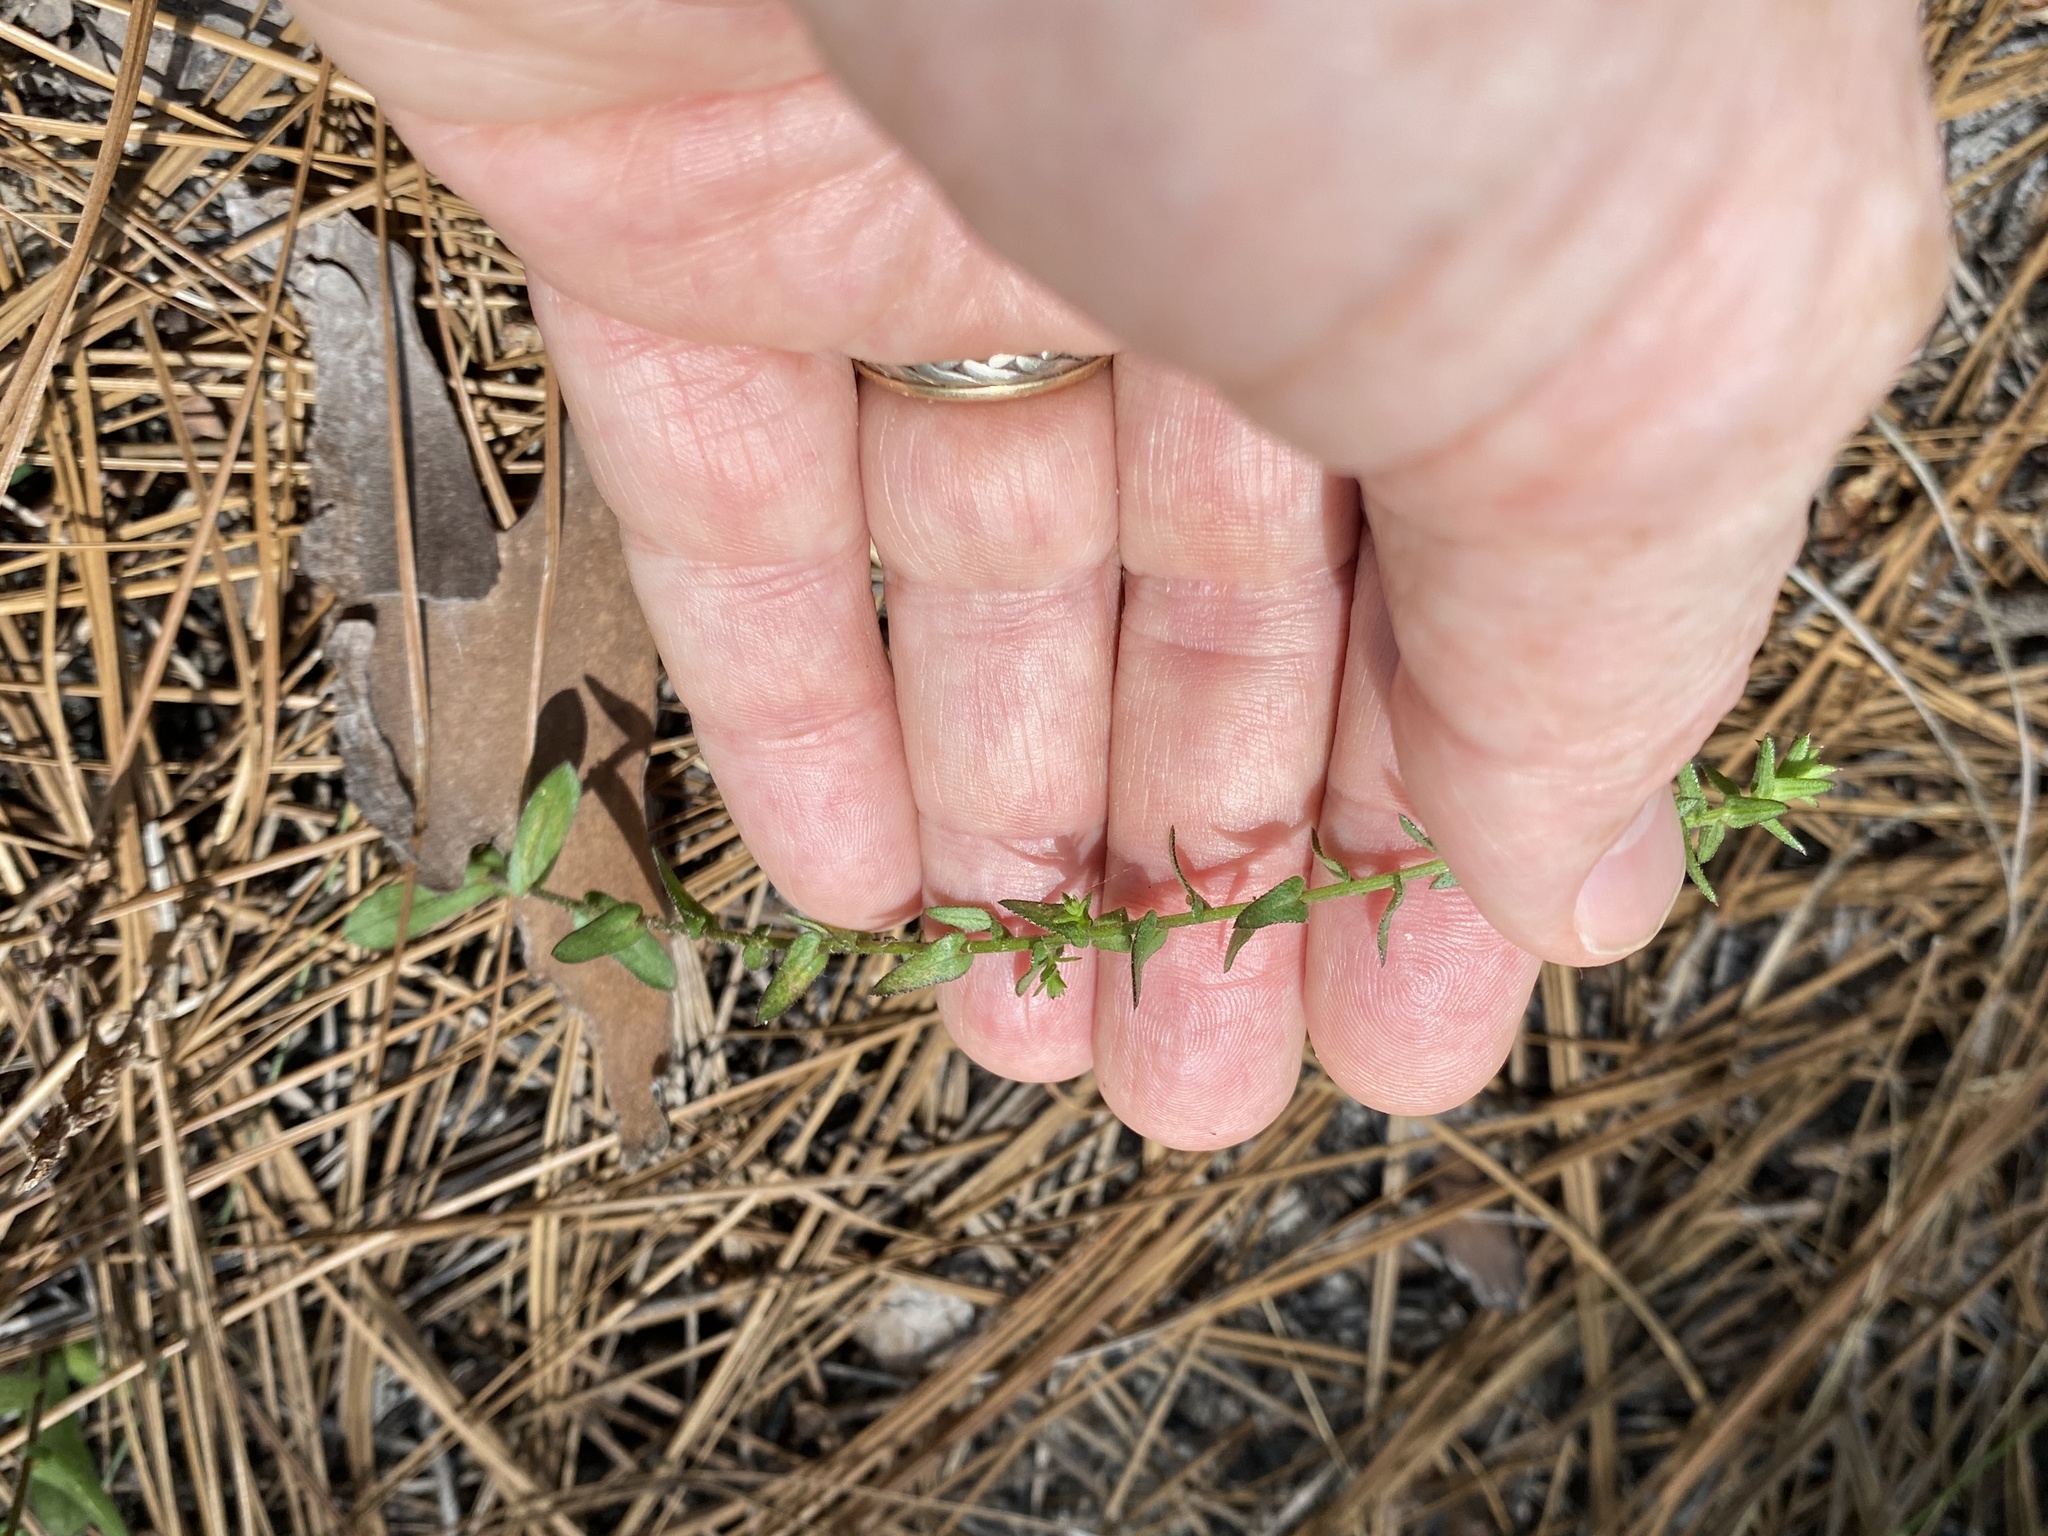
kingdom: Plantae
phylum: Tracheophyta
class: Magnoliopsida
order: Asterales
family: Asteraceae
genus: Symphyotrichum
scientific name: Symphyotrichum walteri
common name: Walter's aster
